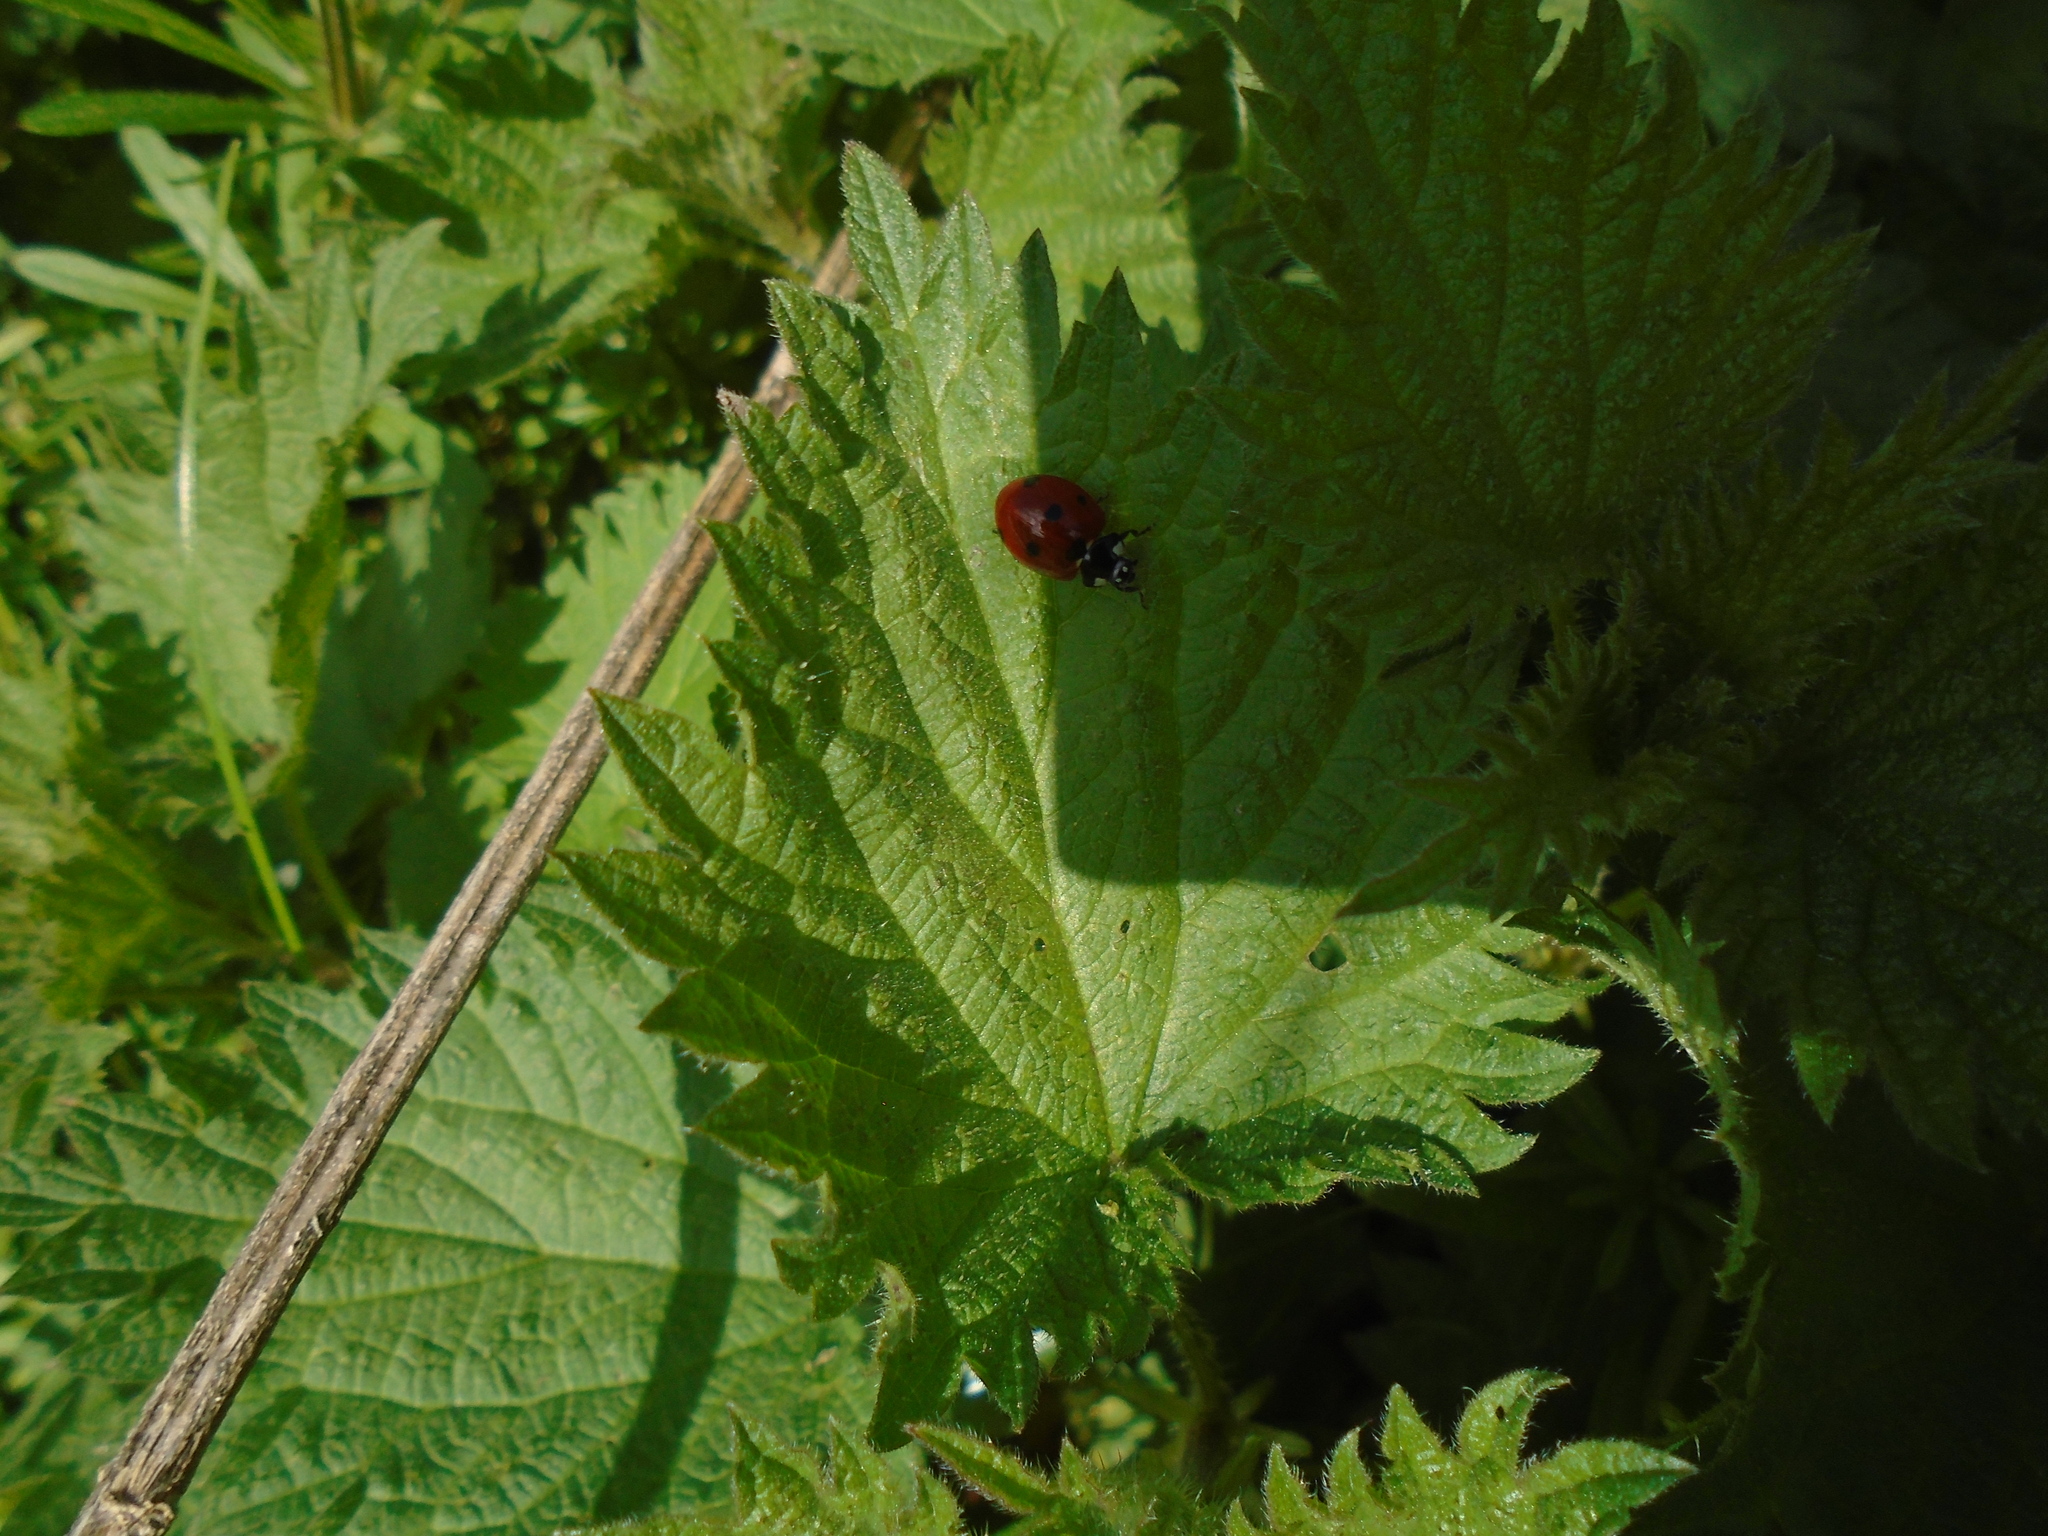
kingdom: Animalia
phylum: Arthropoda
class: Insecta
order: Coleoptera
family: Coccinellidae
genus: Coccinella
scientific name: Coccinella septempunctata
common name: Sevenspotted lady beetle
